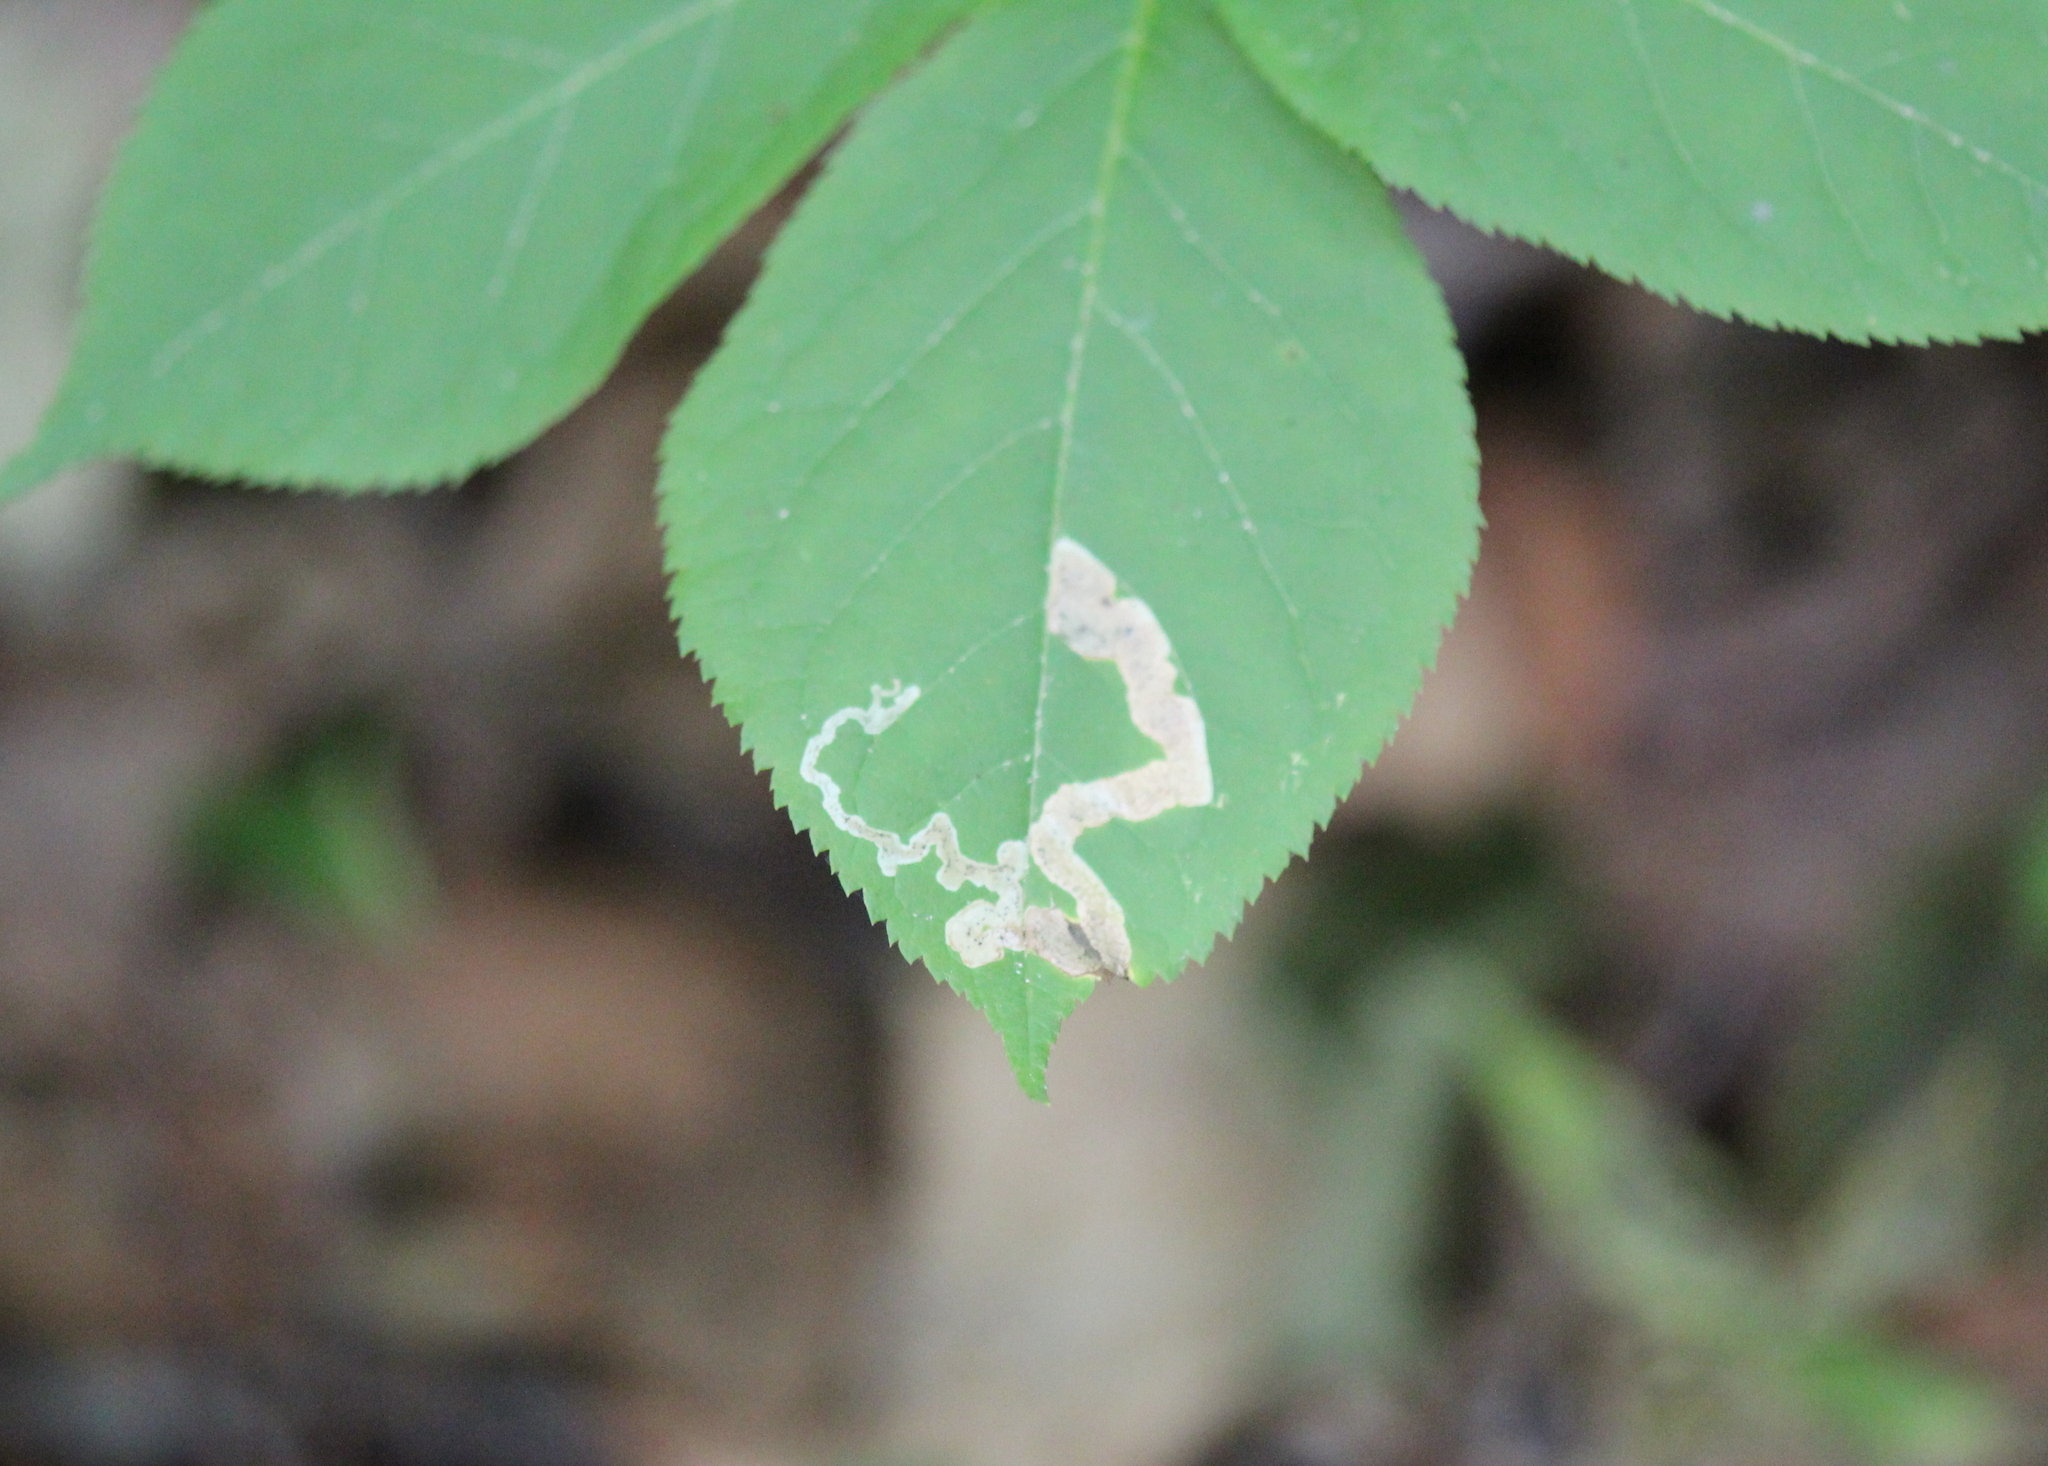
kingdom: Animalia
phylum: Arthropoda
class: Insecta
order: Diptera
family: Agromyzidae
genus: Phytomyza
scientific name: Phytomyza aralivora
